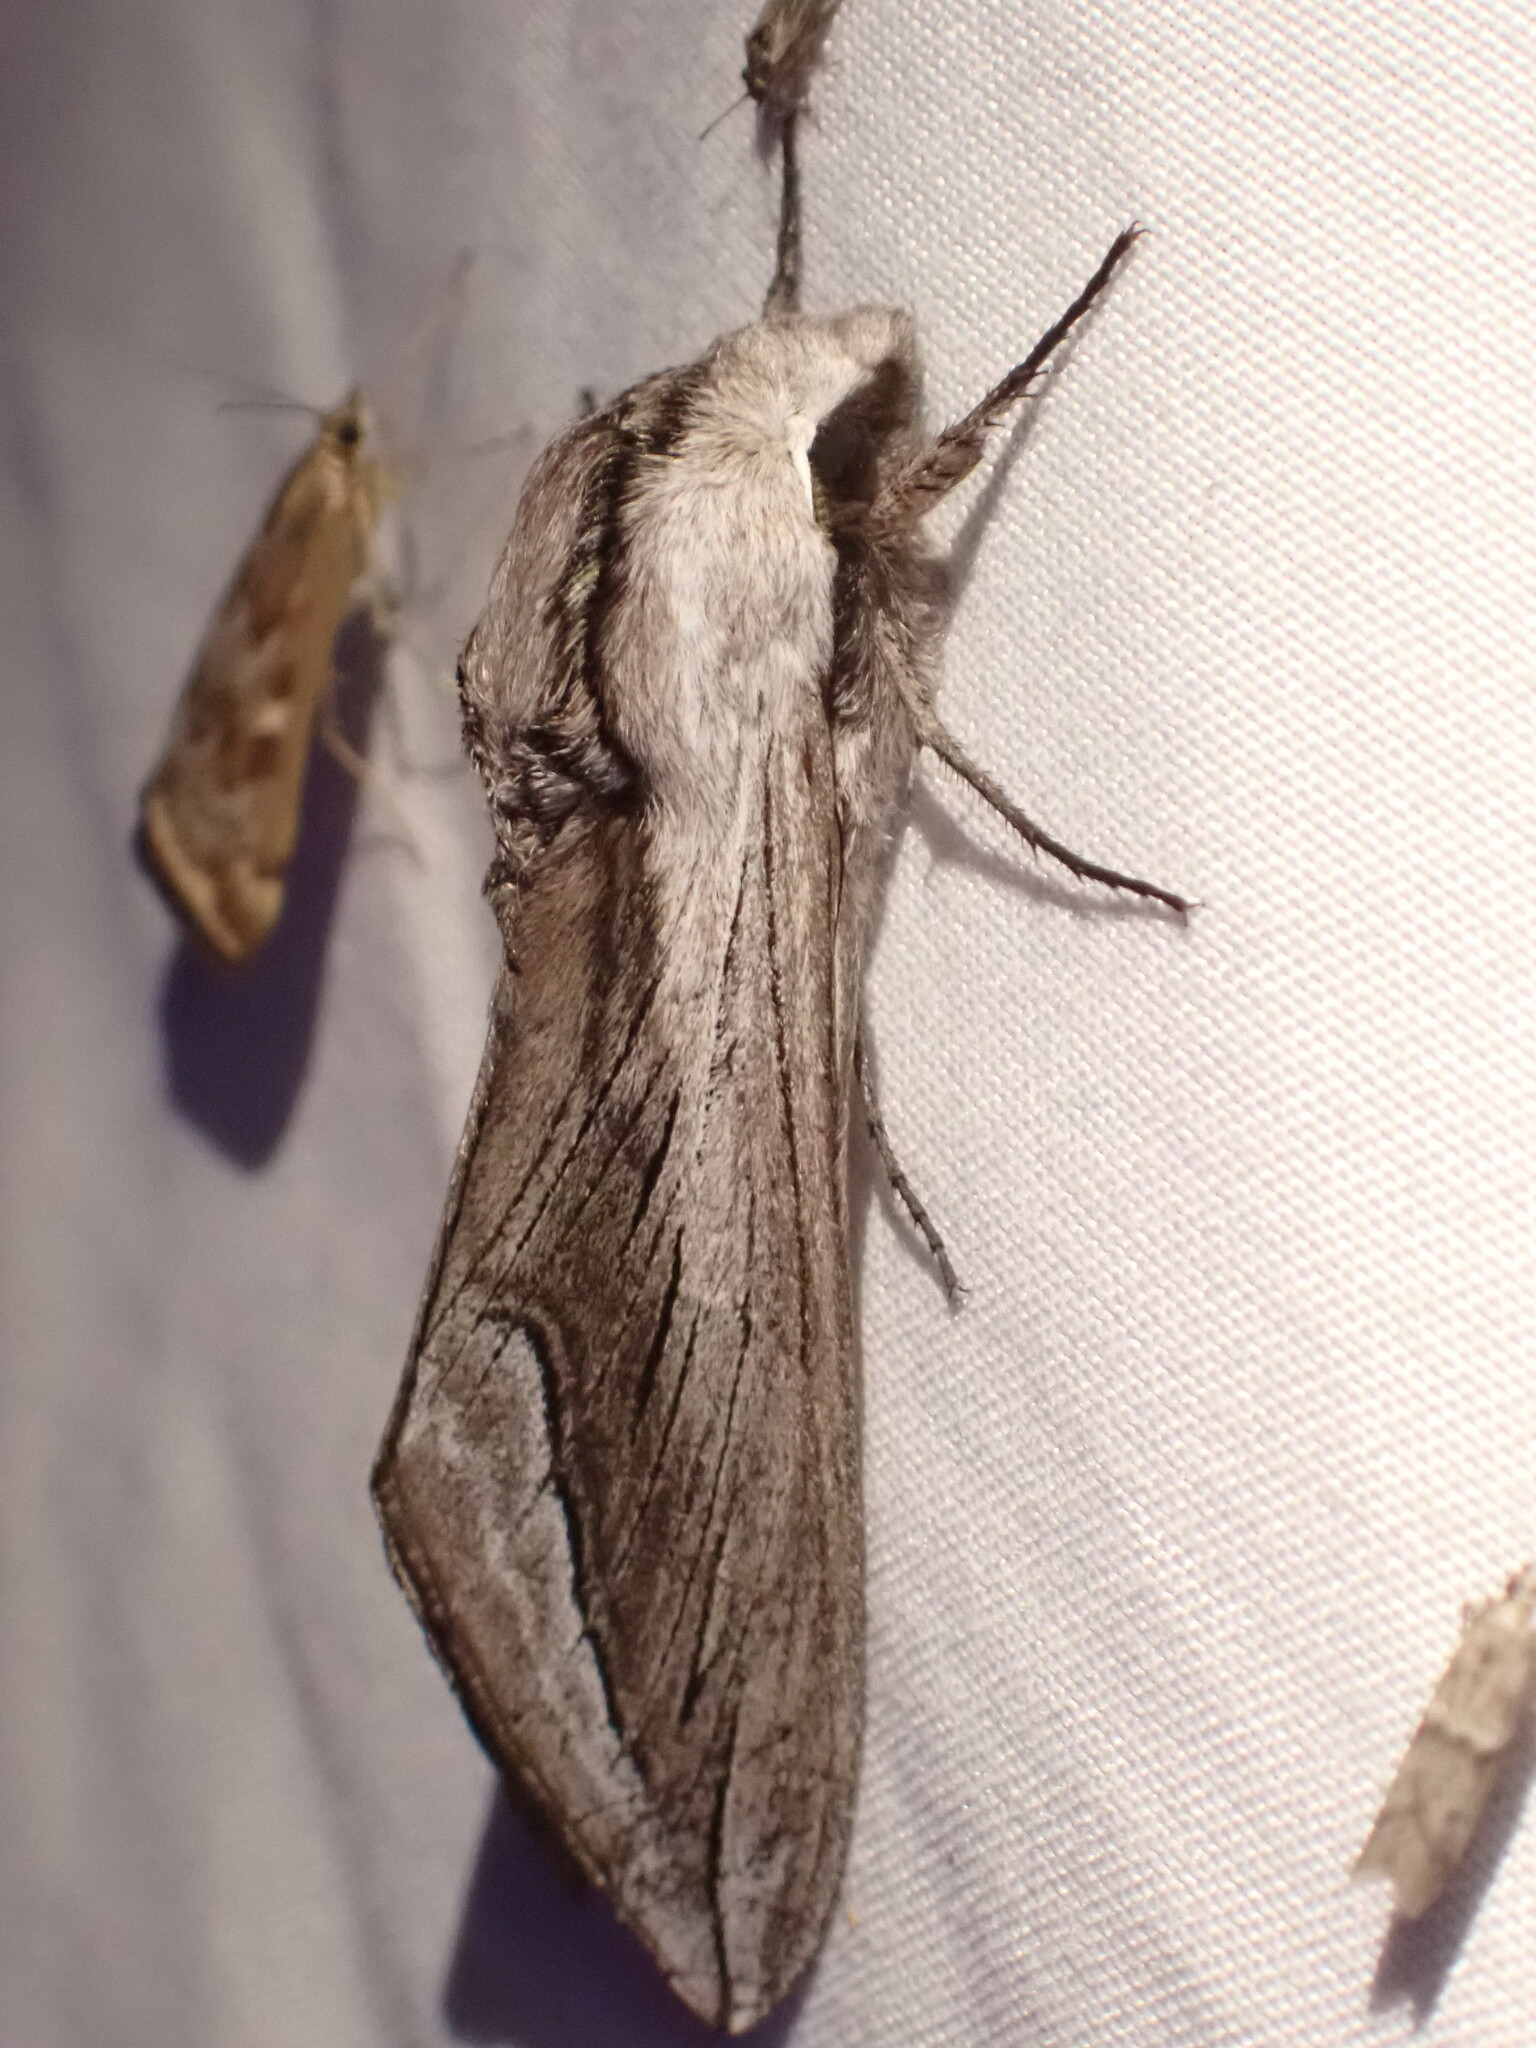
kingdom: Animalia
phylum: Arthropoda
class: Insecta
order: Lepidoptera
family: Sphingidae
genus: Sphinx
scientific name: Sphinx vashti
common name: Snowberry sphinx
